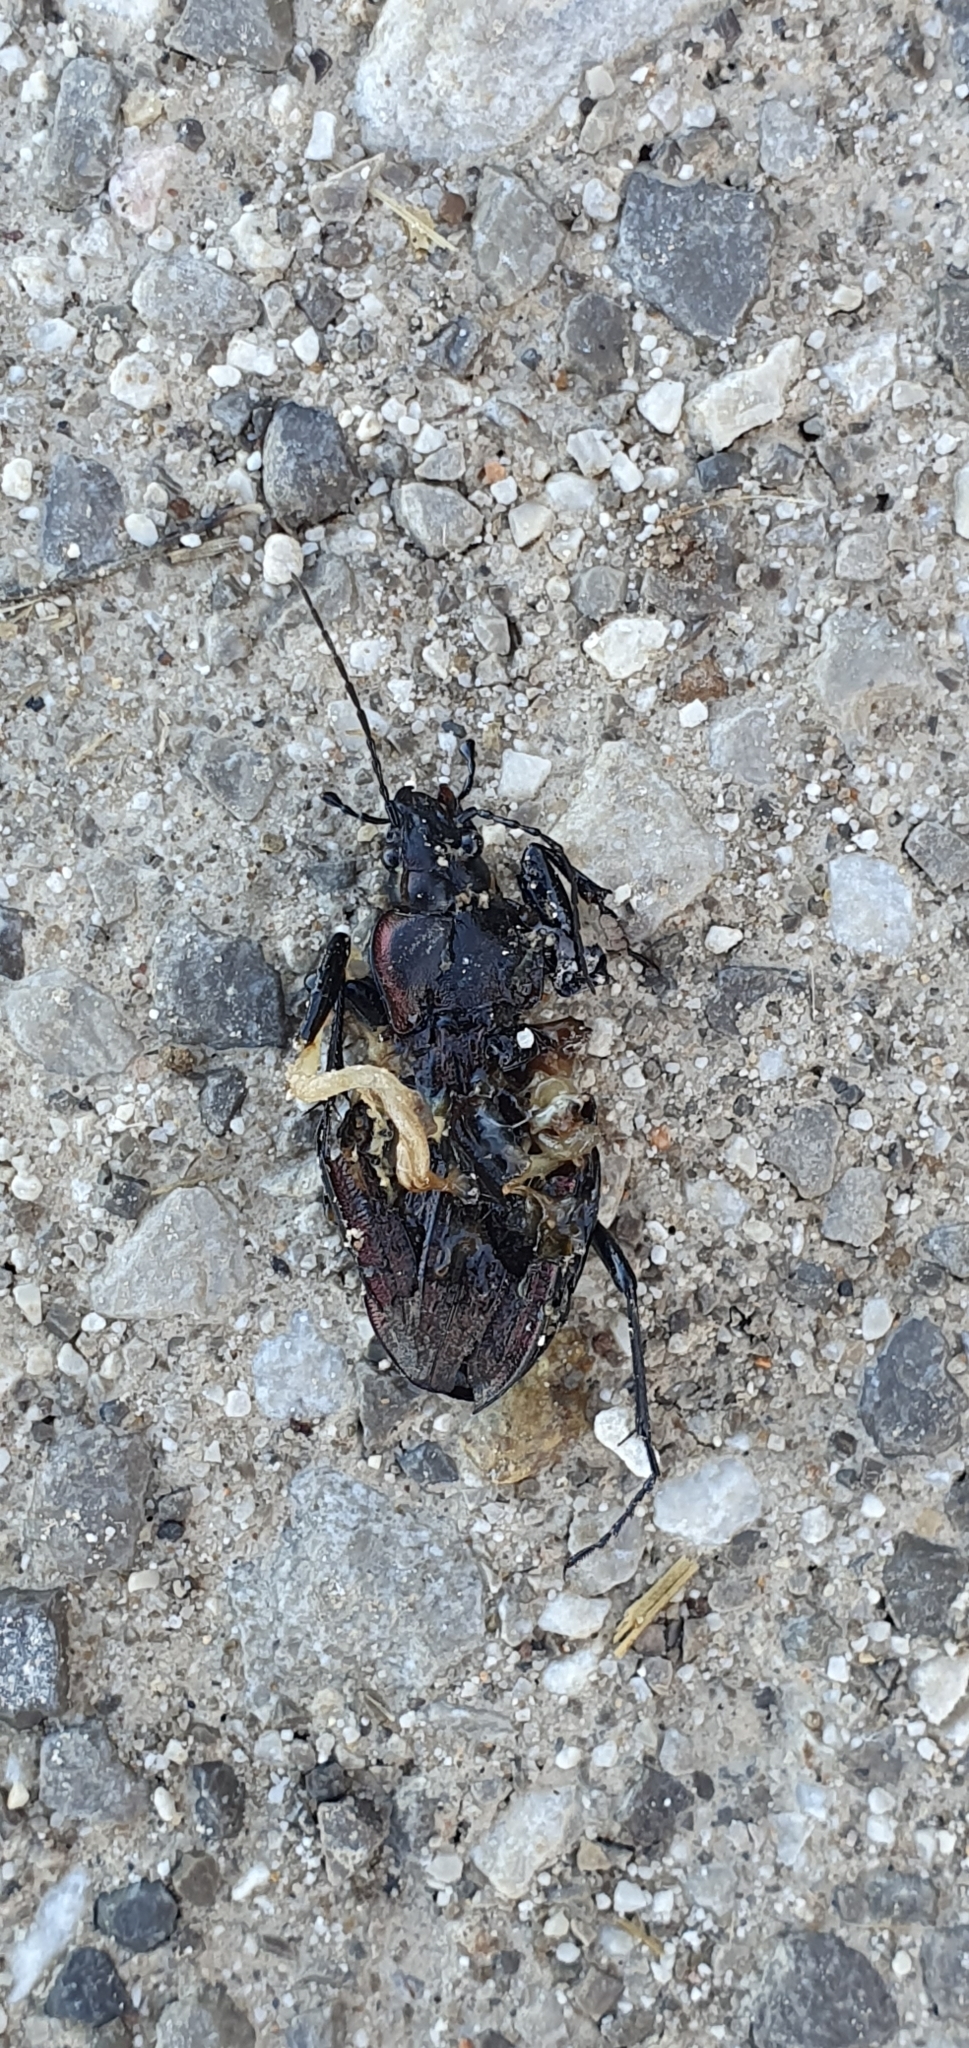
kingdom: Animalia
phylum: Arthropoda
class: Insecta
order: Coleoptera
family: Carabidae
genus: Carabus
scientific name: Carabus faminii
